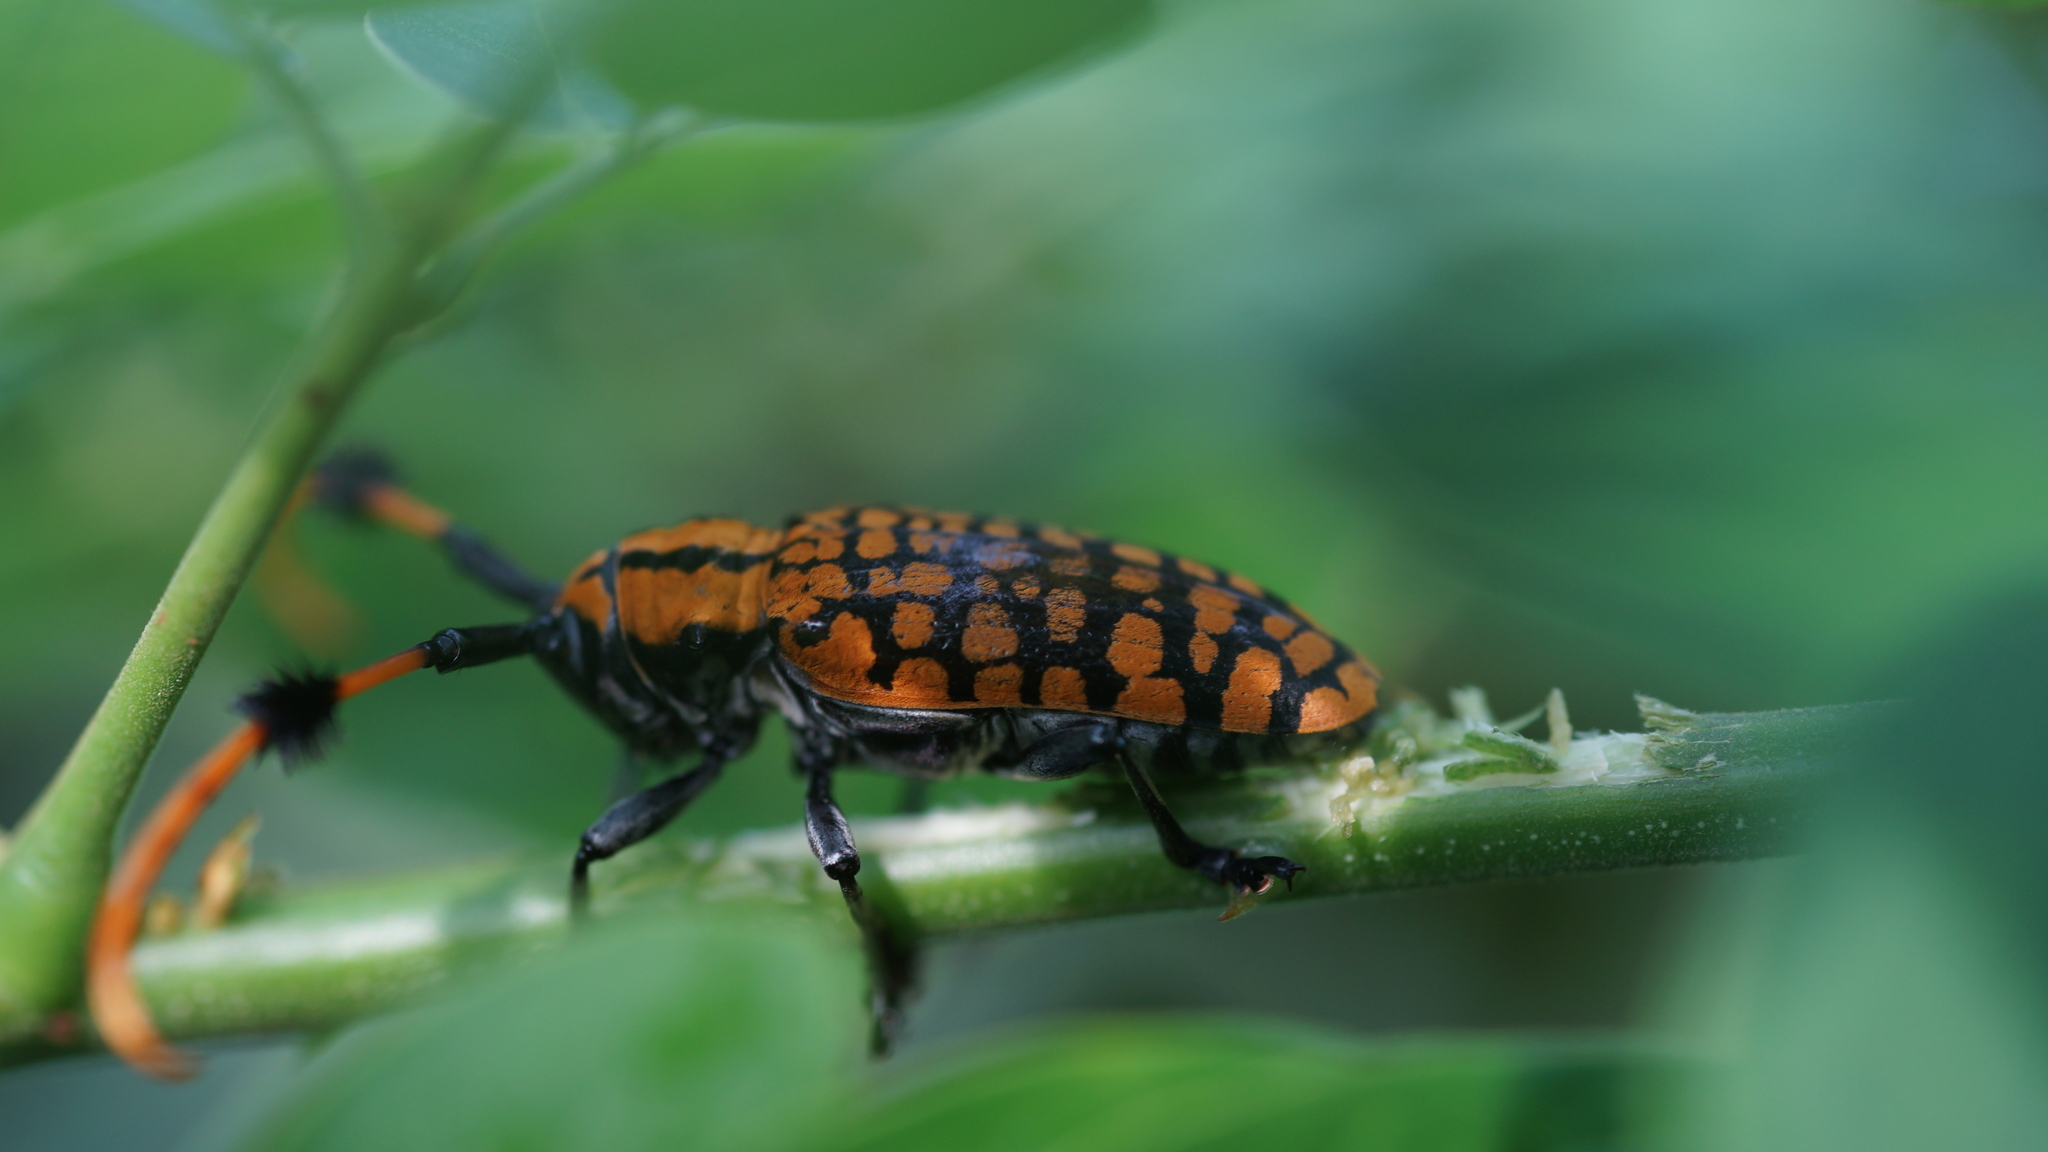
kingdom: Animalia
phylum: Arthropoda
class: Insecta
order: Coleoptera
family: Cerambycidae
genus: Aristobia
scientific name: Aristobia approximator
